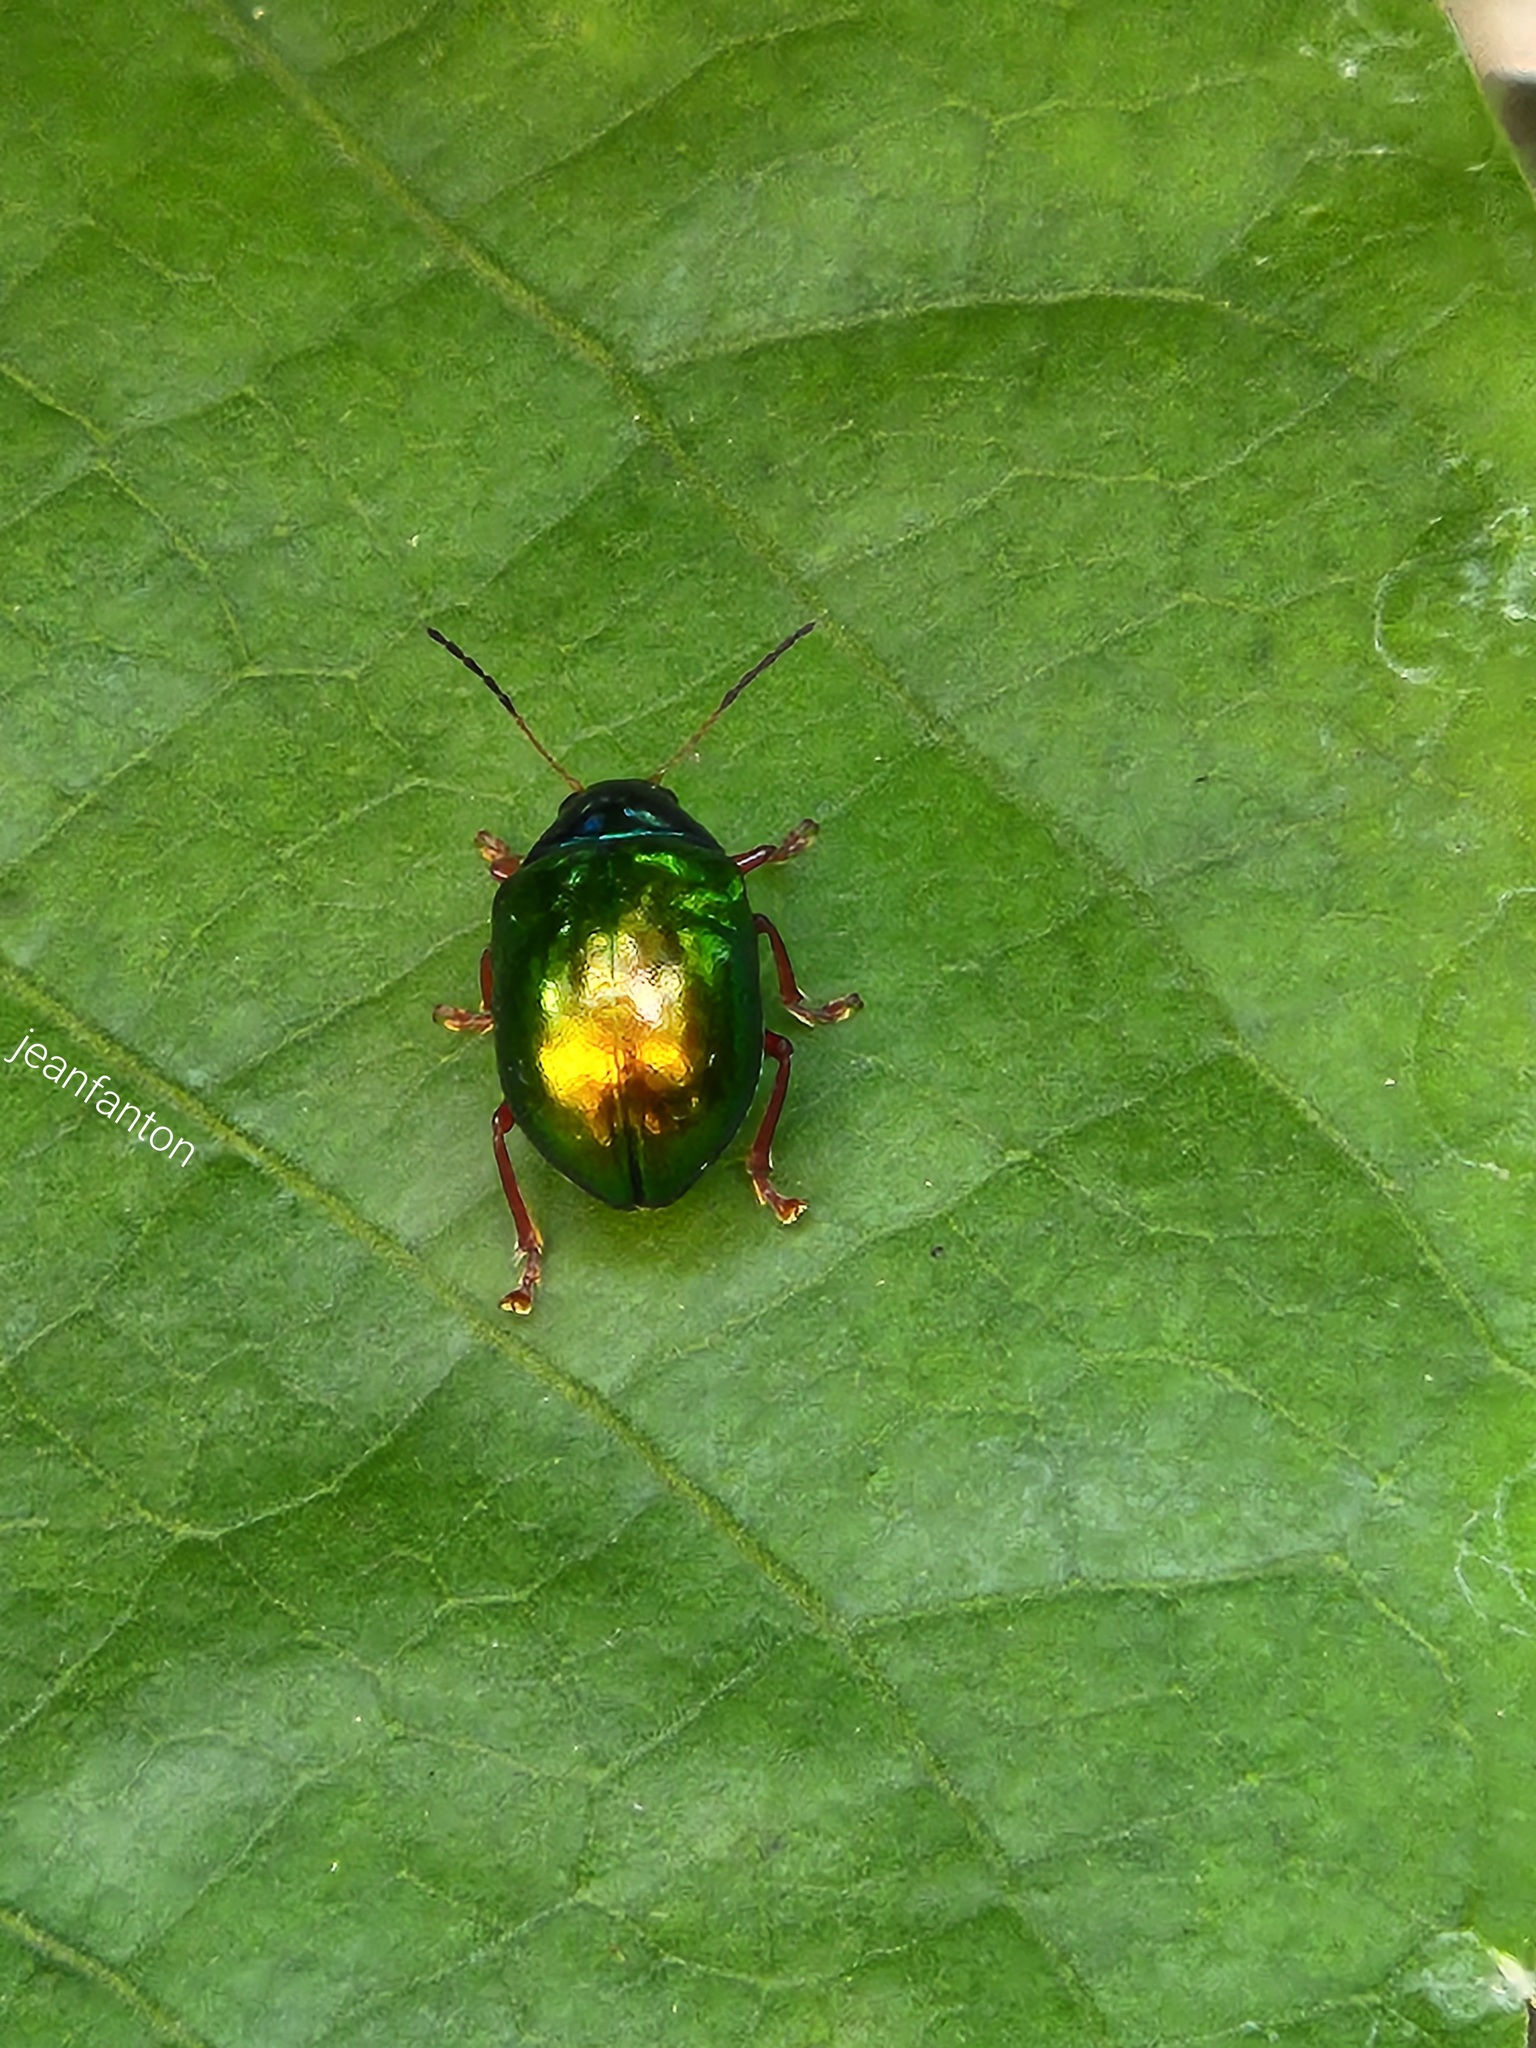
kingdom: Animalia
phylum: Arthropoda
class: Insecta
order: Coleoptera
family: Chrysomelidae
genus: Iphimeis
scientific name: Iphimeis
